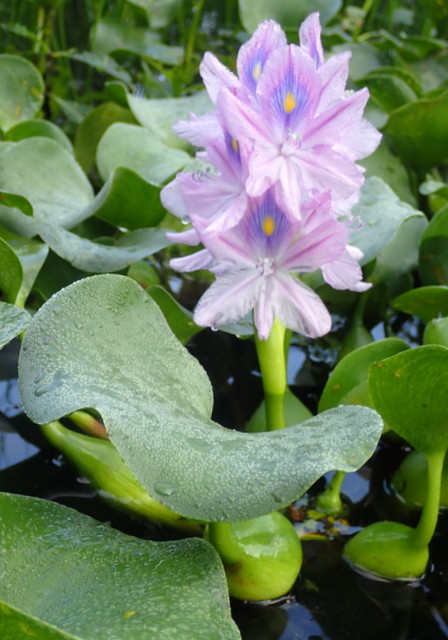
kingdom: Plantae
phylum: Tracheophyta
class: Liliopsida
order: Commelinales
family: Pontederiaceae
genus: Pontederia
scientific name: Pontederia crassipes
